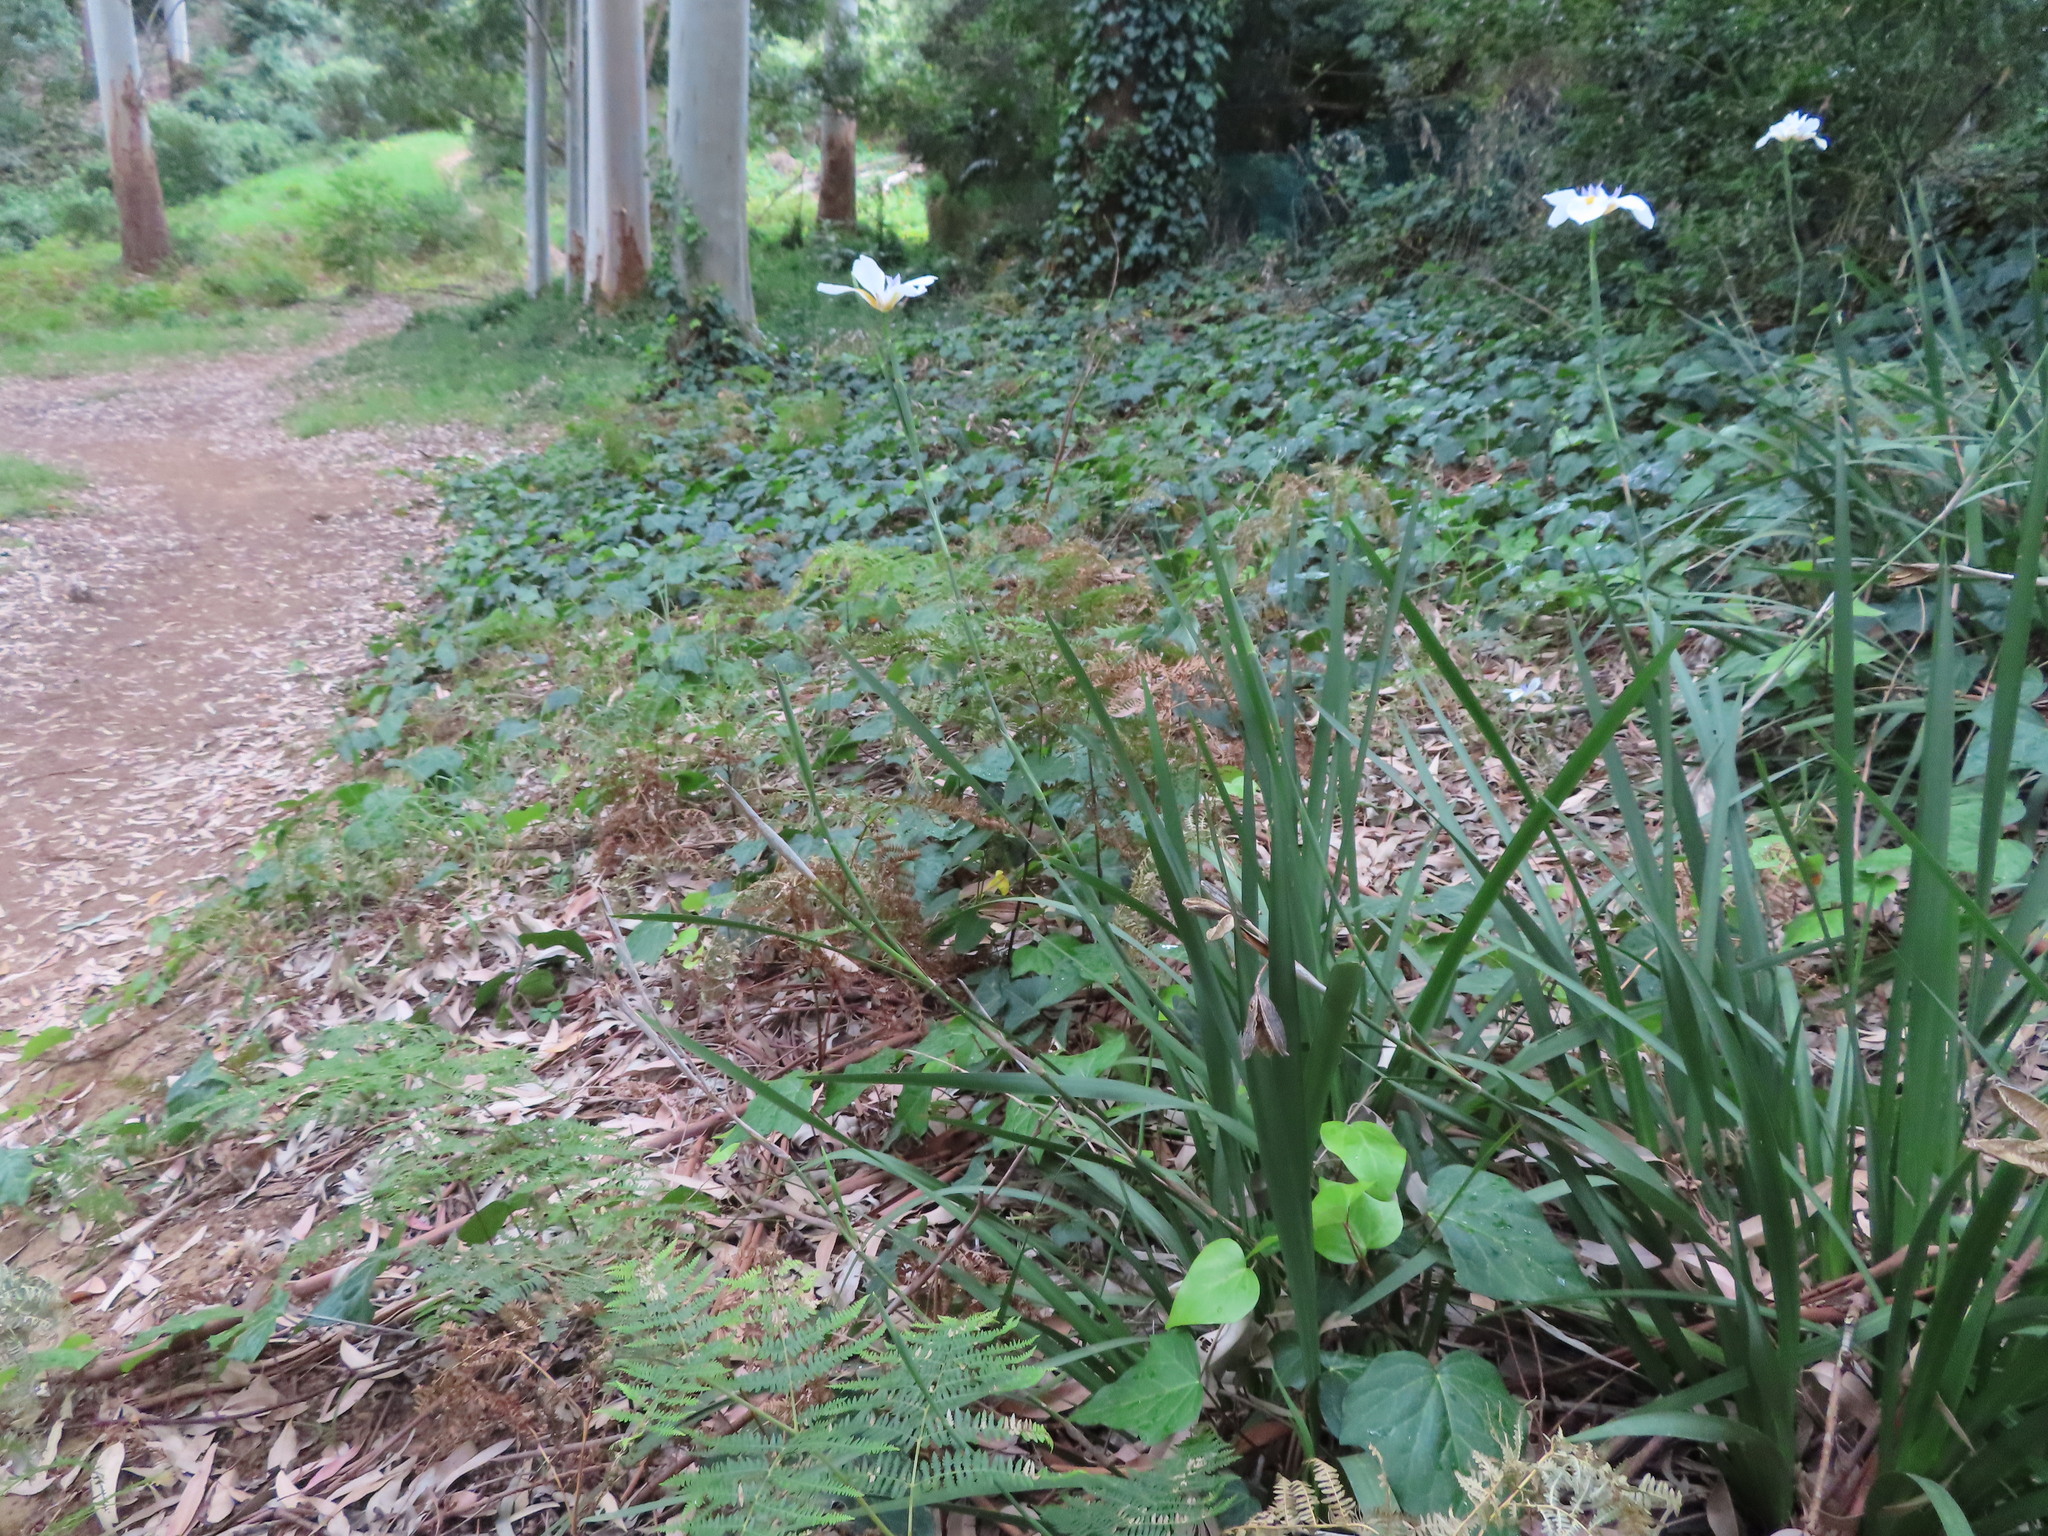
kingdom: Plantae
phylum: Tracheophyta
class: Liliopsida
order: Asparagales
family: Iridaceae
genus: Dietes
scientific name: Dietes grandiflora
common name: Wild iris
